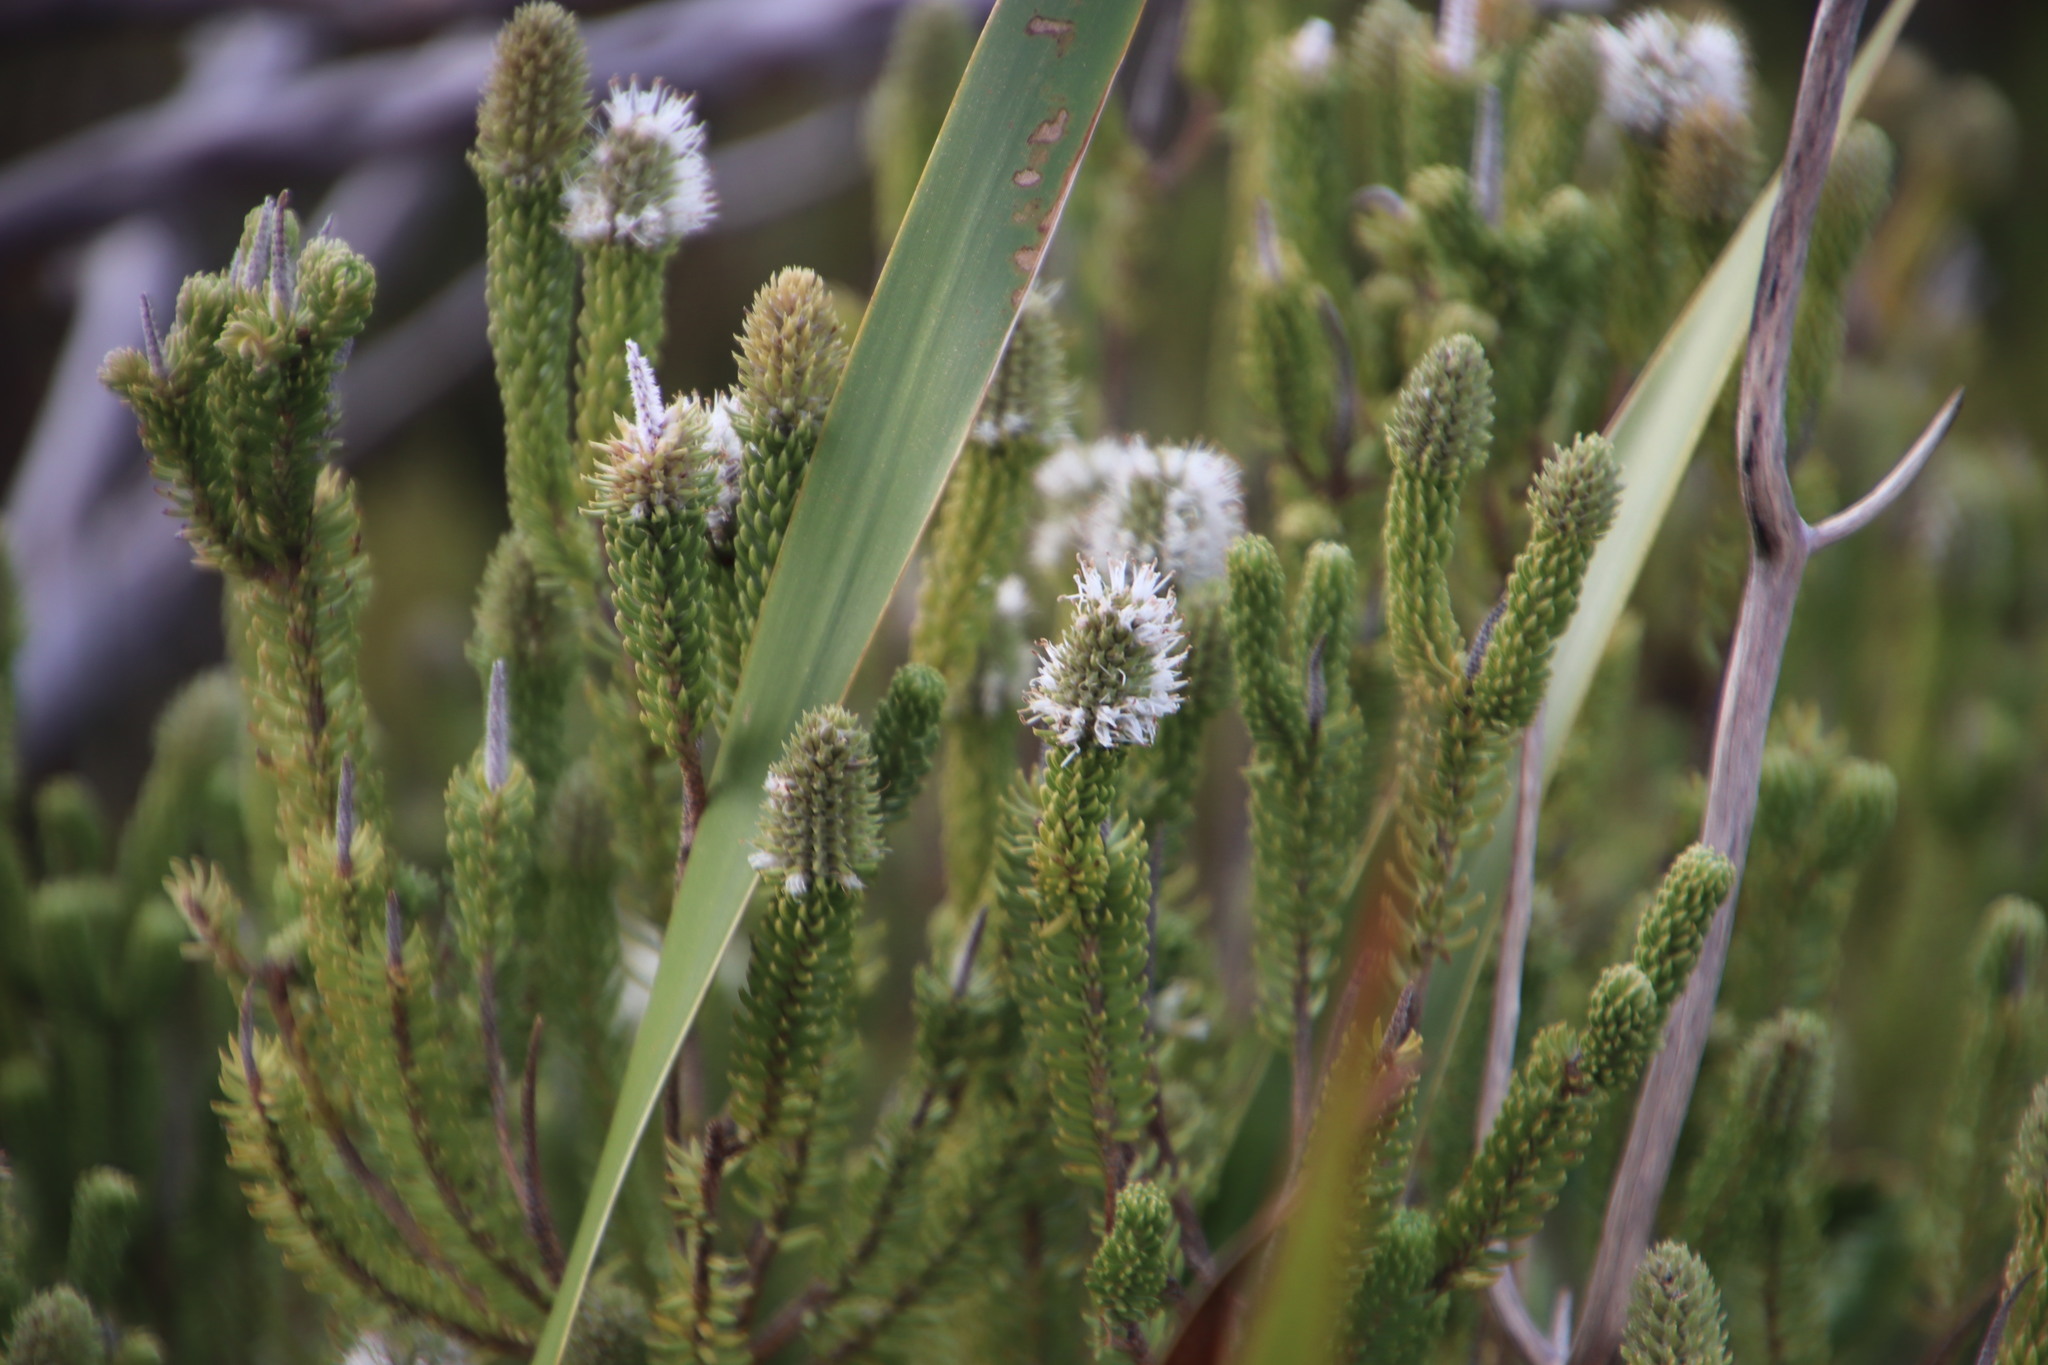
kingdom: Plantae
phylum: Tracheophyta
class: Magnoliopsida
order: Lamiales
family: Stilbaceae
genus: Stilbe
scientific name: Stilbe vestita
